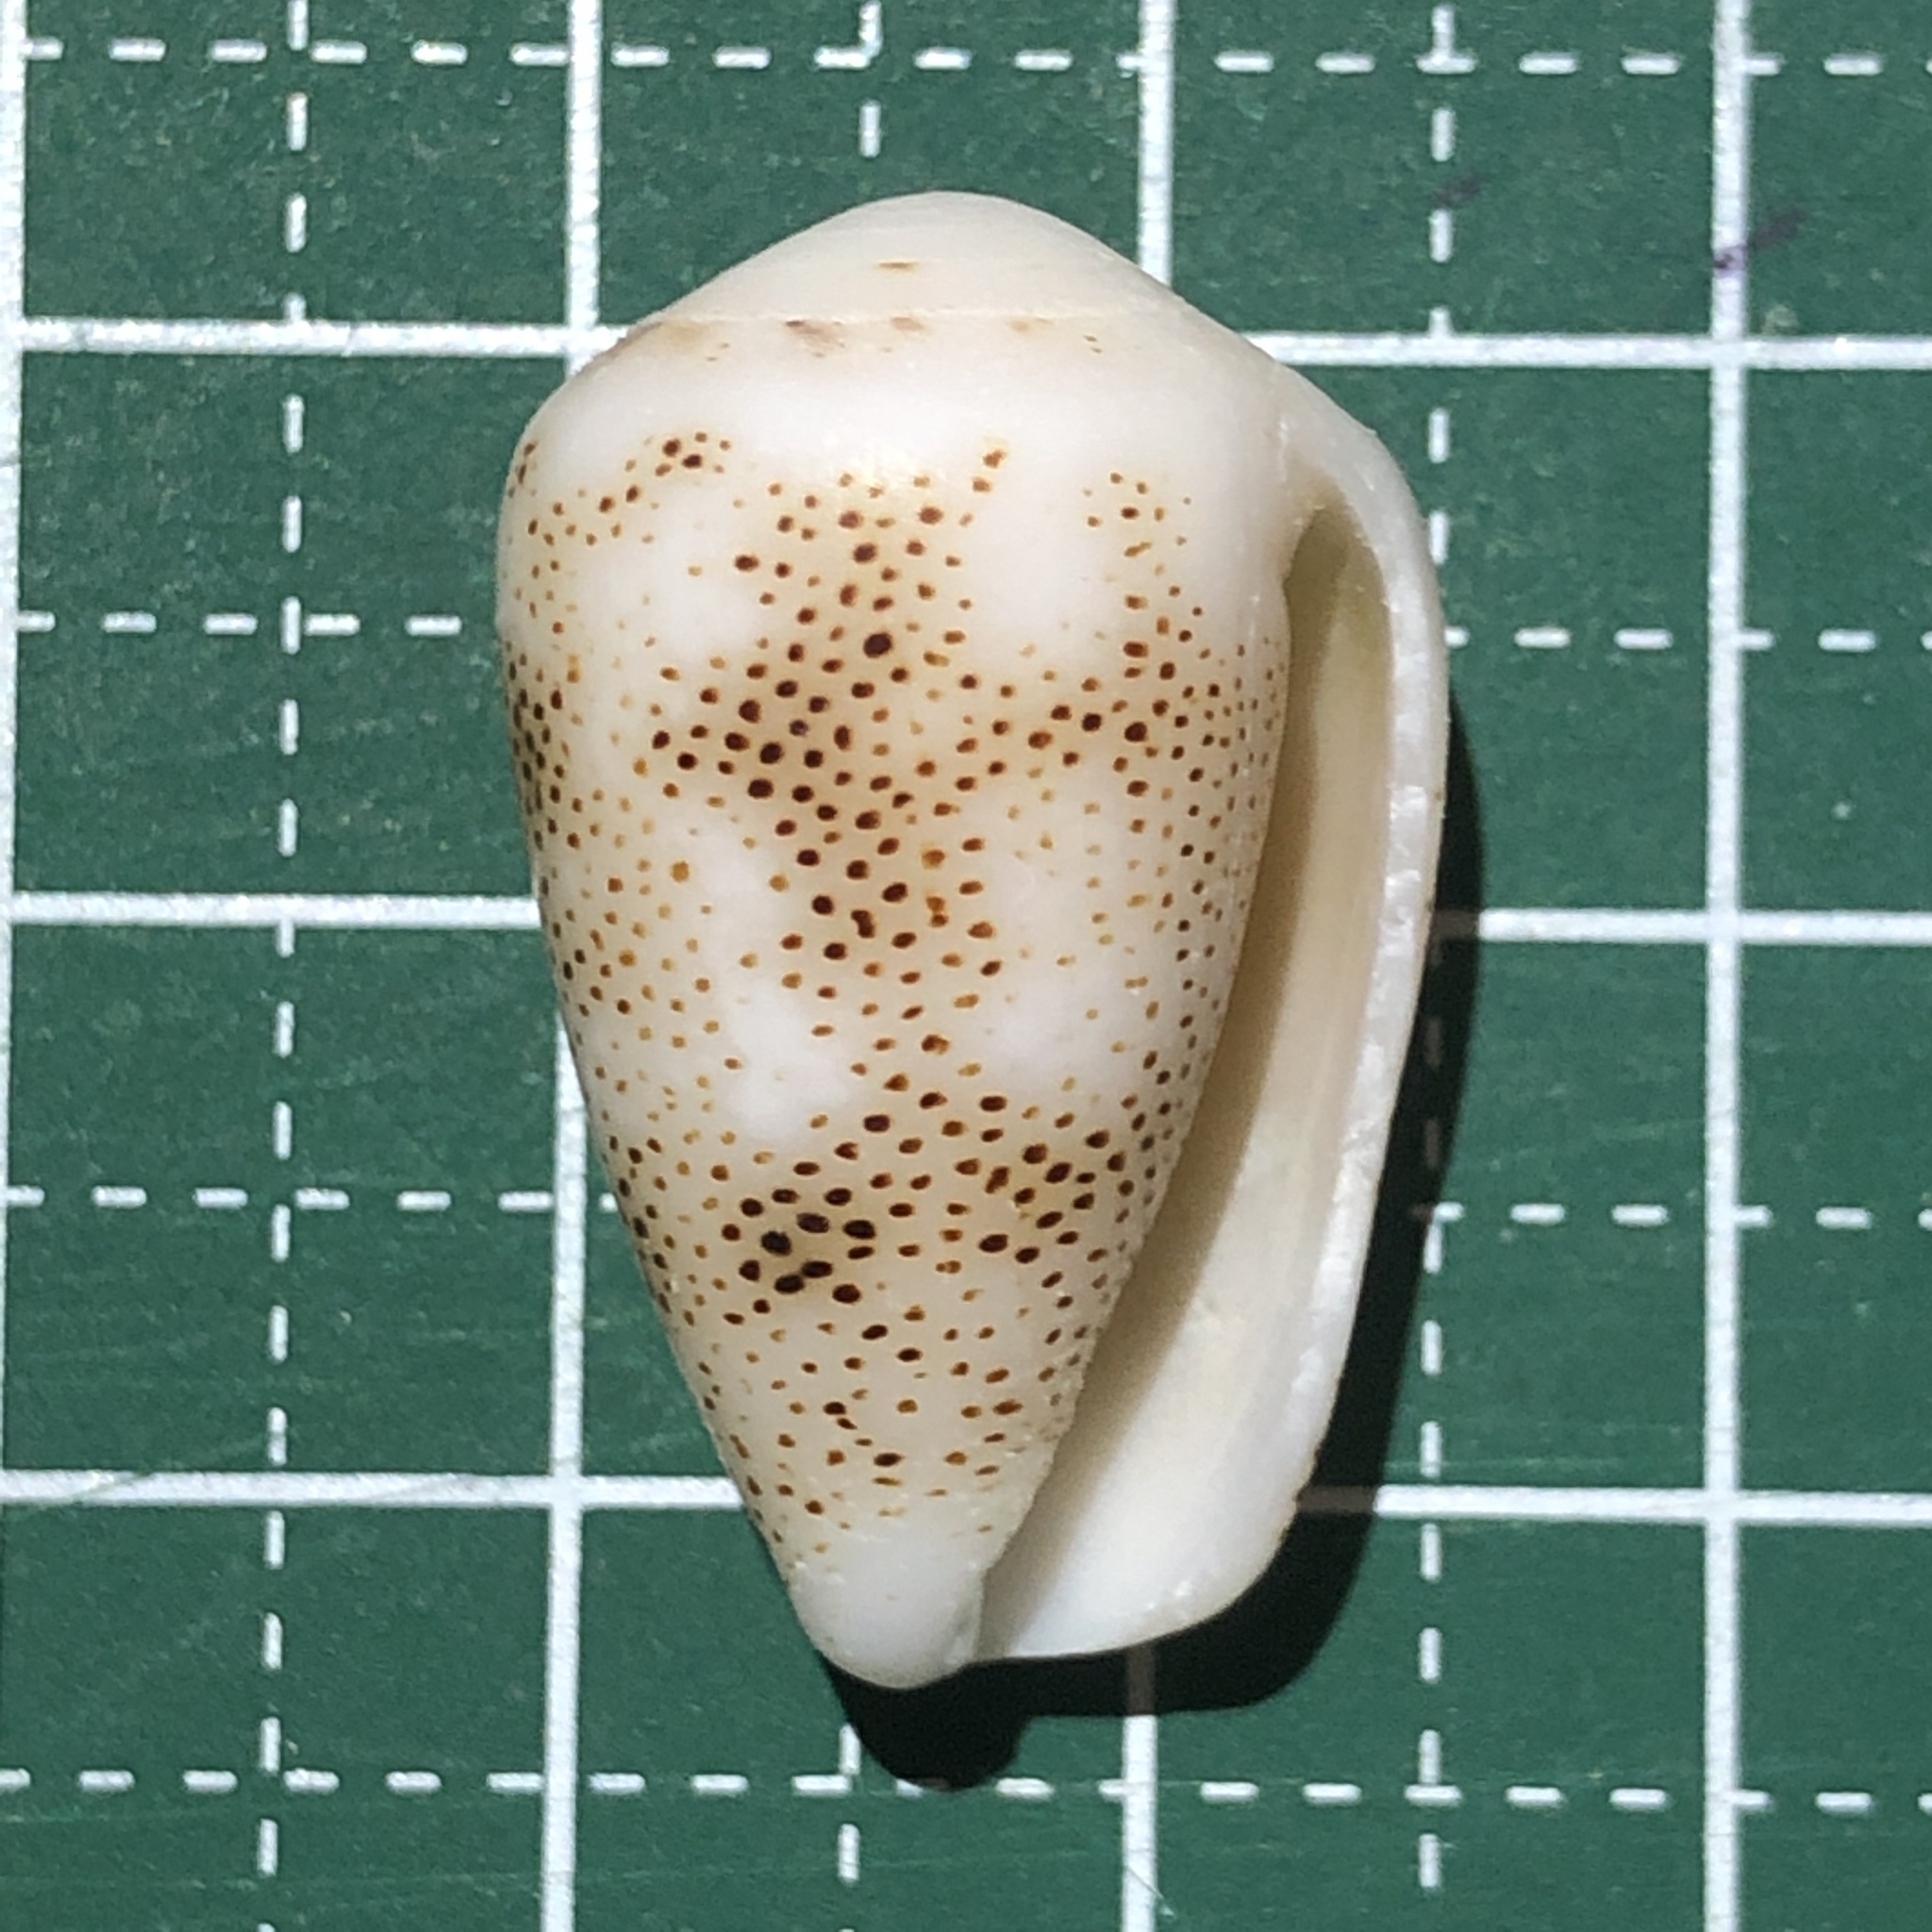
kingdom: Animalia
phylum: Mollusca
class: Gastropoda
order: Neogastropoda
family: Conidae
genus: Conus
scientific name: Conus arenatus
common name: Sand-dusted cone
